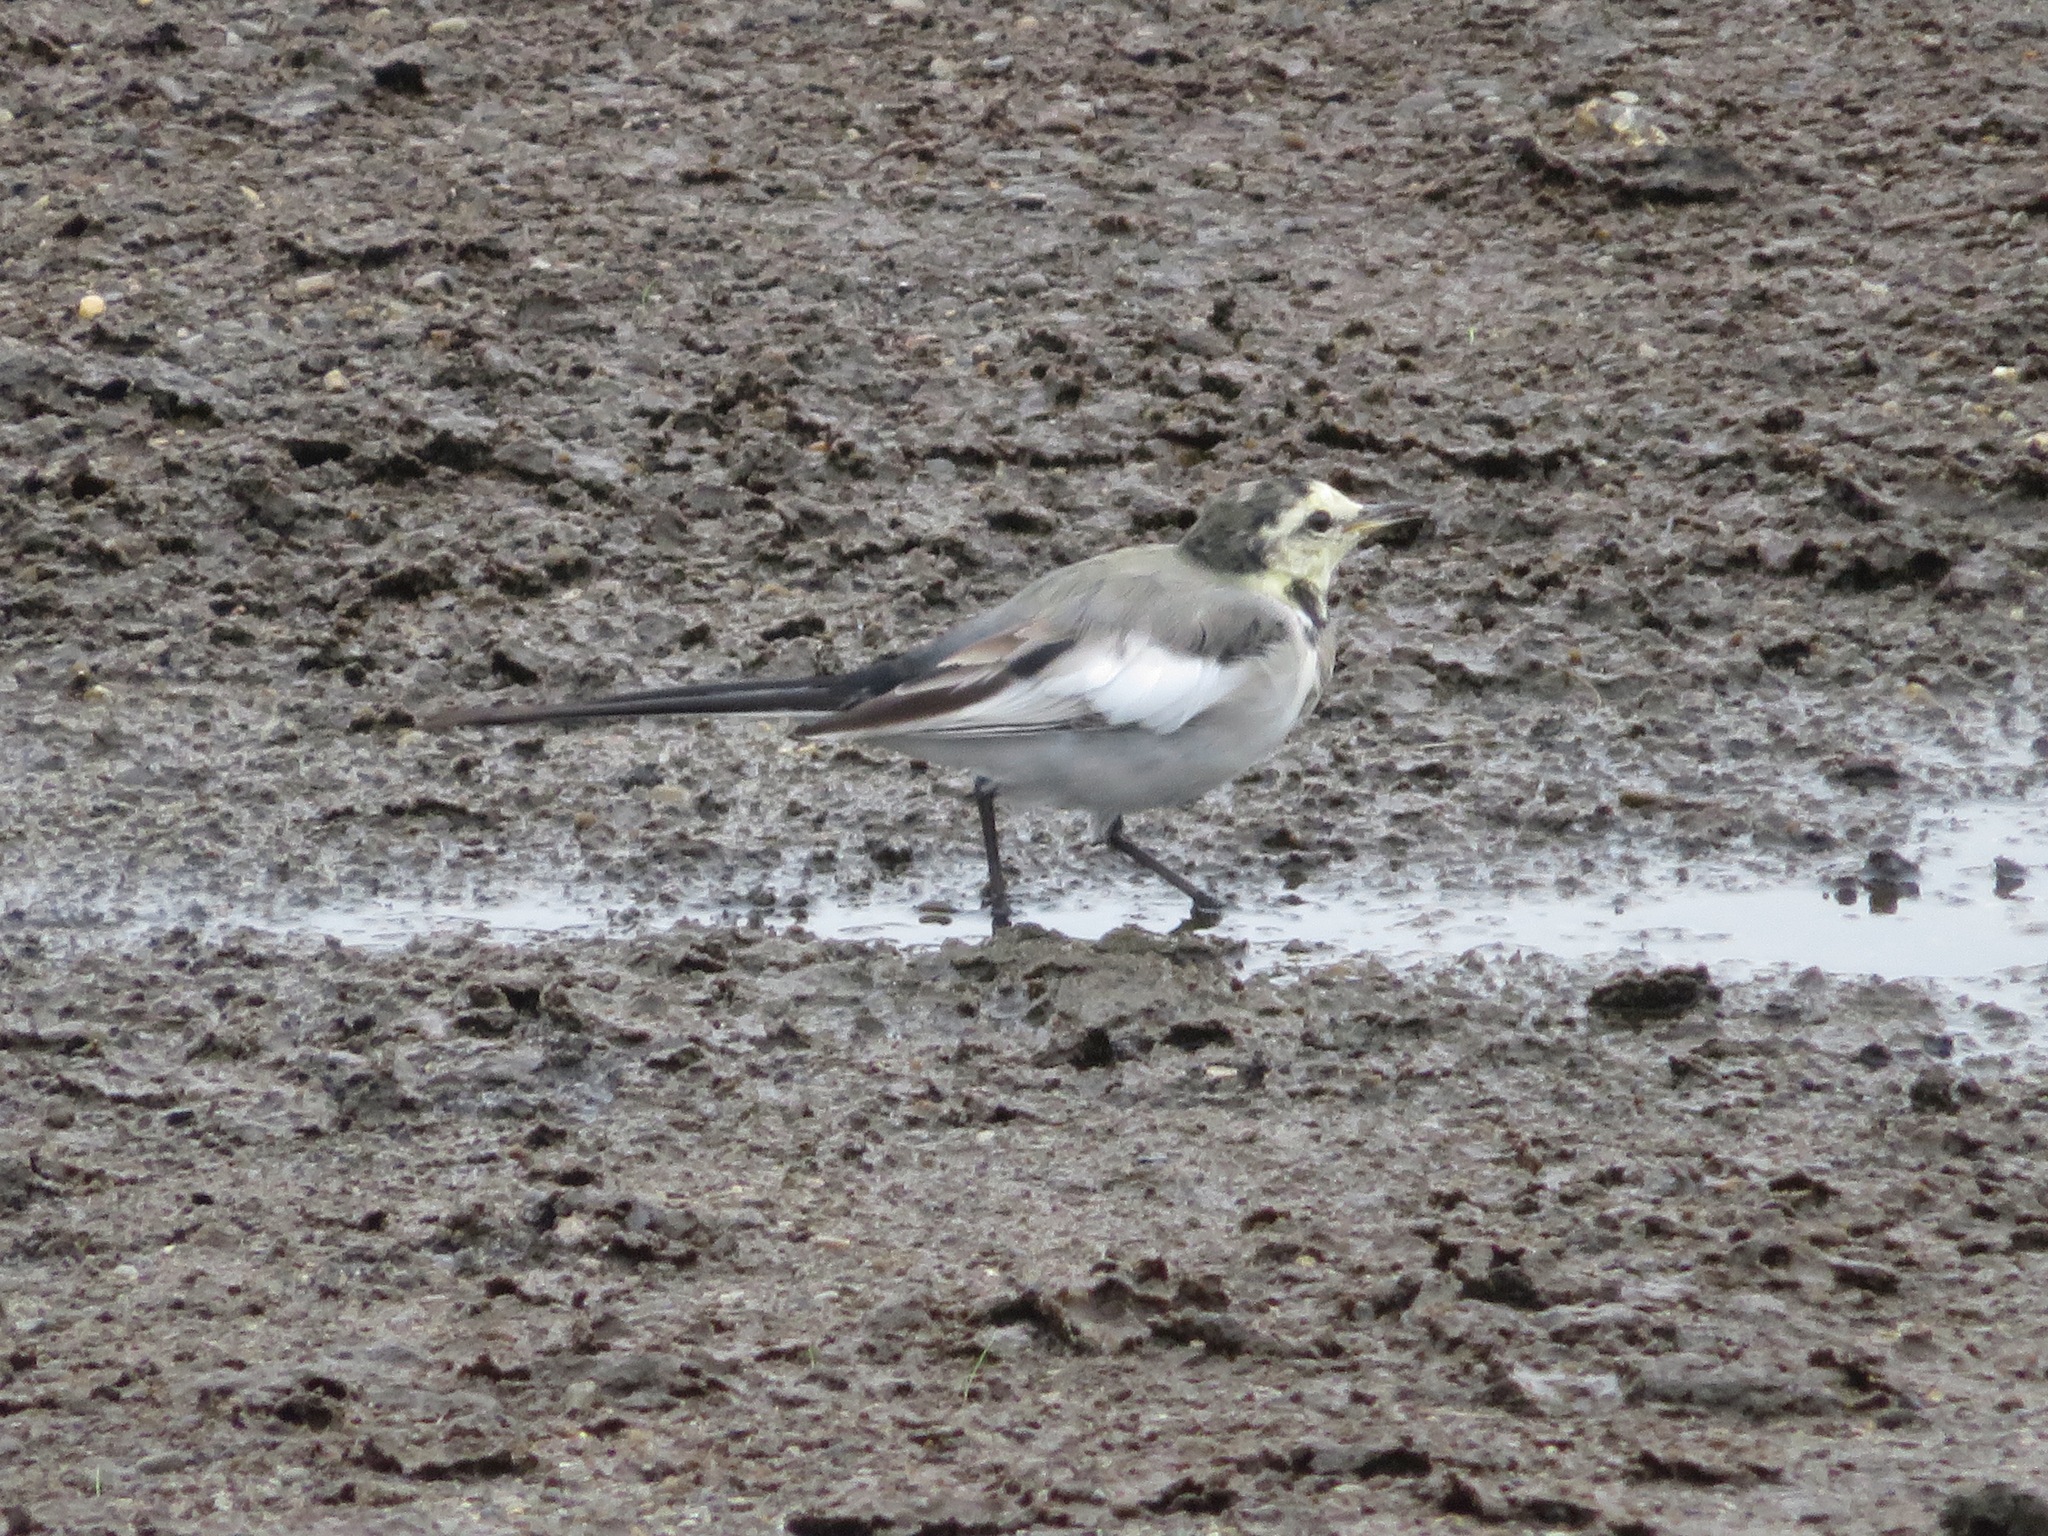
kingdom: Animalia
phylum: Chordata
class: Aves
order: Passeriformes
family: Motacillidae
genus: Motacilla
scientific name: Motacilla alba
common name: White wagtail
